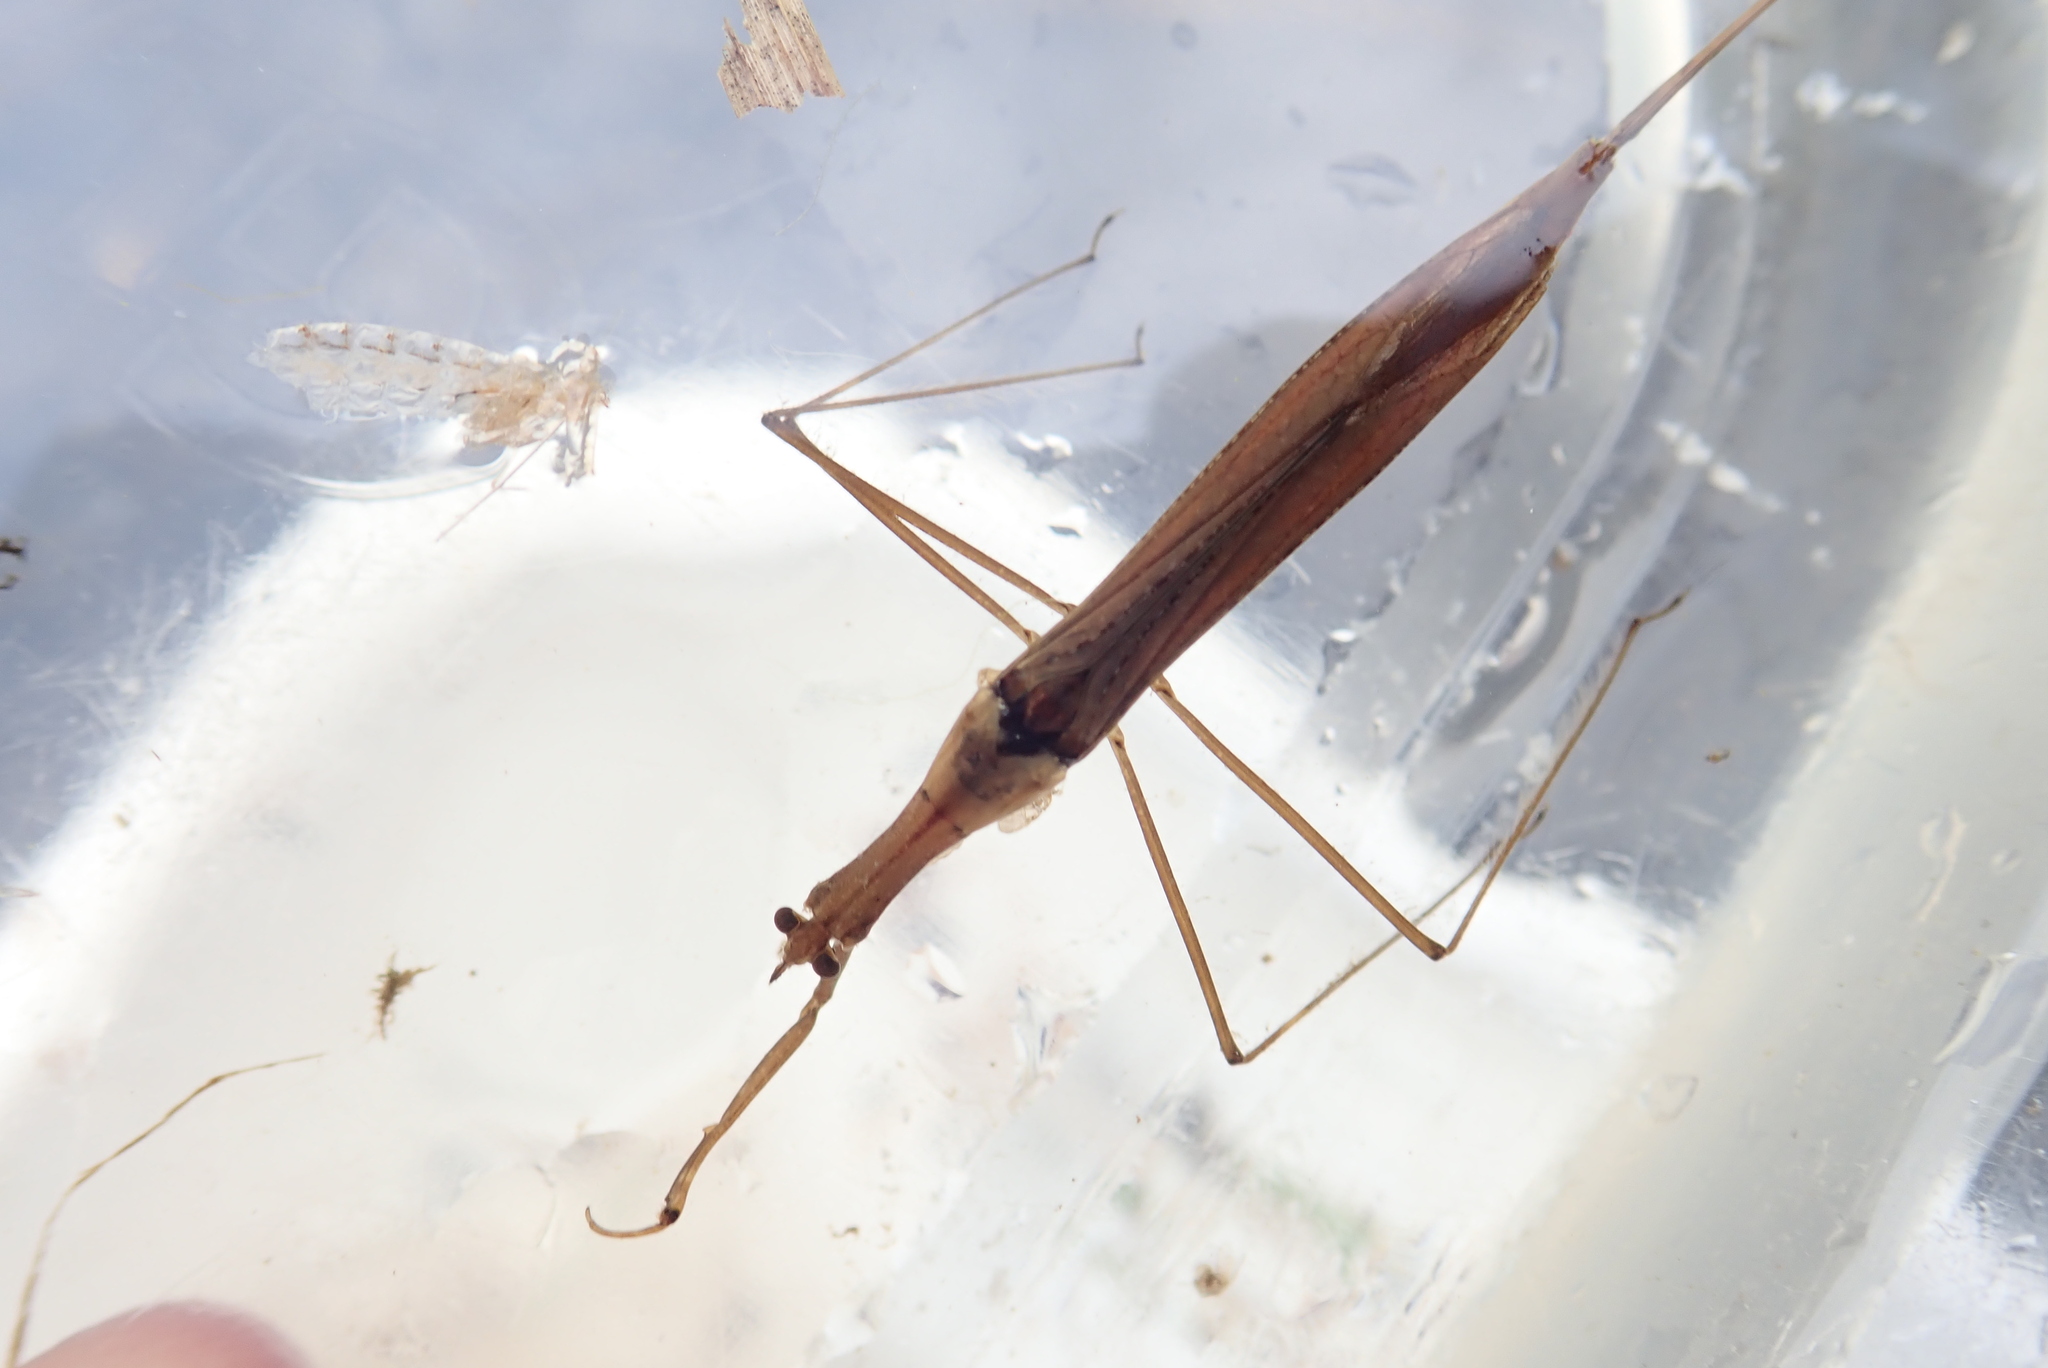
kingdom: Animalia
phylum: Arthropoda
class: Insecta
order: Hemiptera
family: Nepidae
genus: Ranatra
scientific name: Ranatra fusca
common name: Brown waterscorpion
